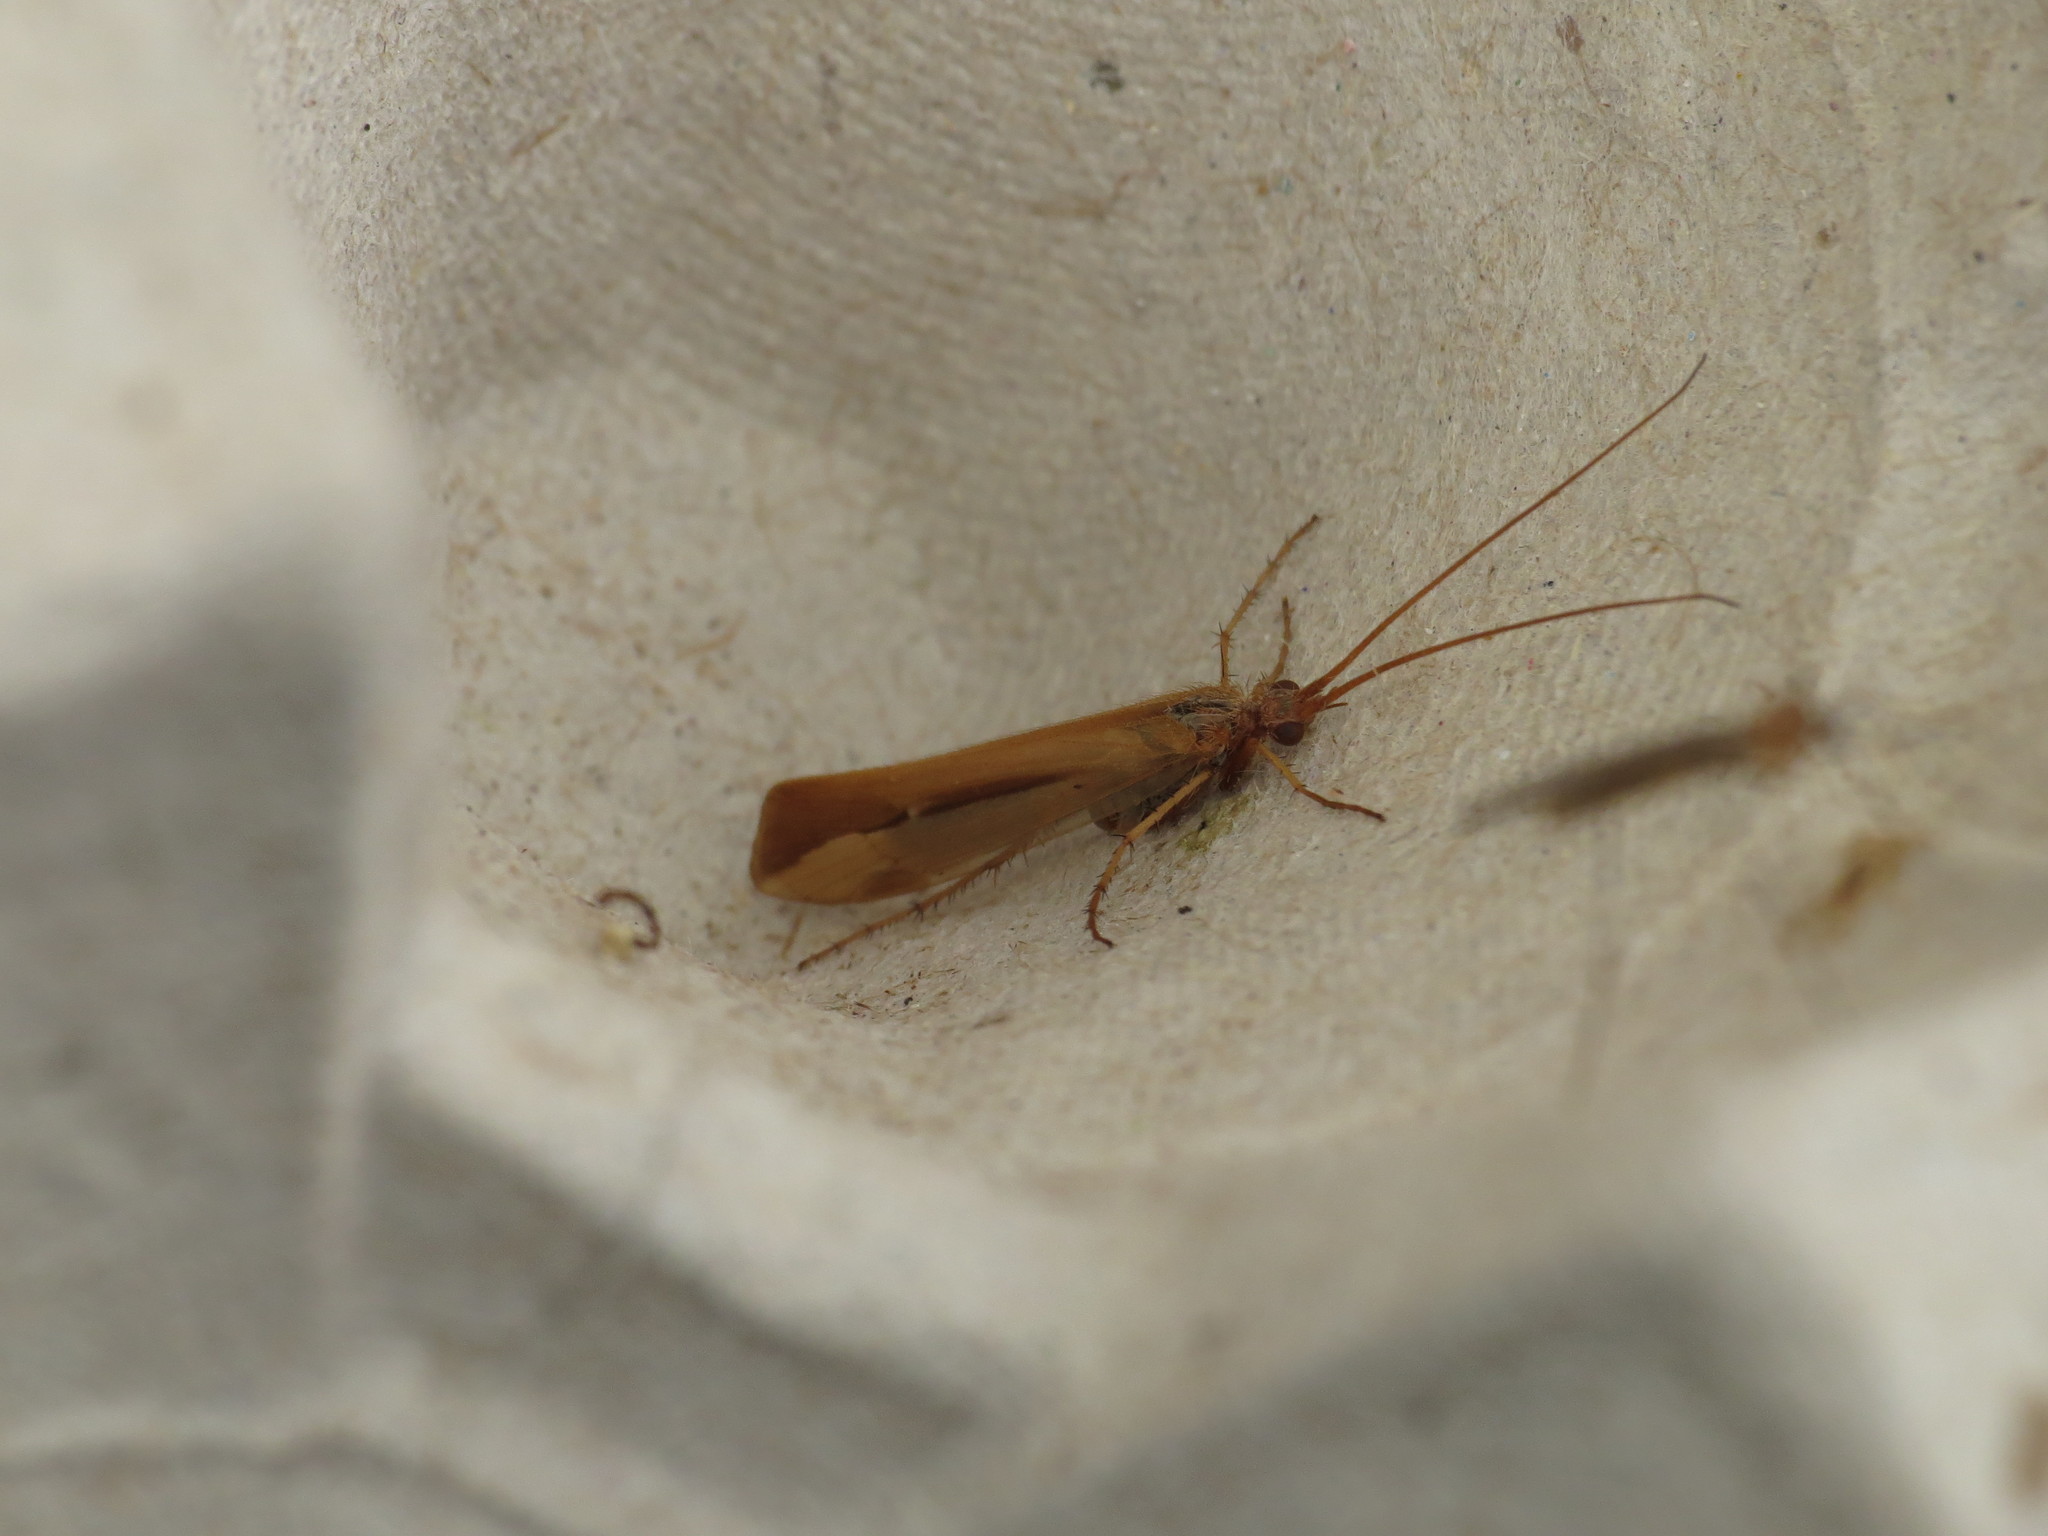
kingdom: Animalia
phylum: Arthropoda
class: Insecta
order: Trichoptera
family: Limnephilidae
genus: Limnephilus
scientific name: Limnephilus vittatus
